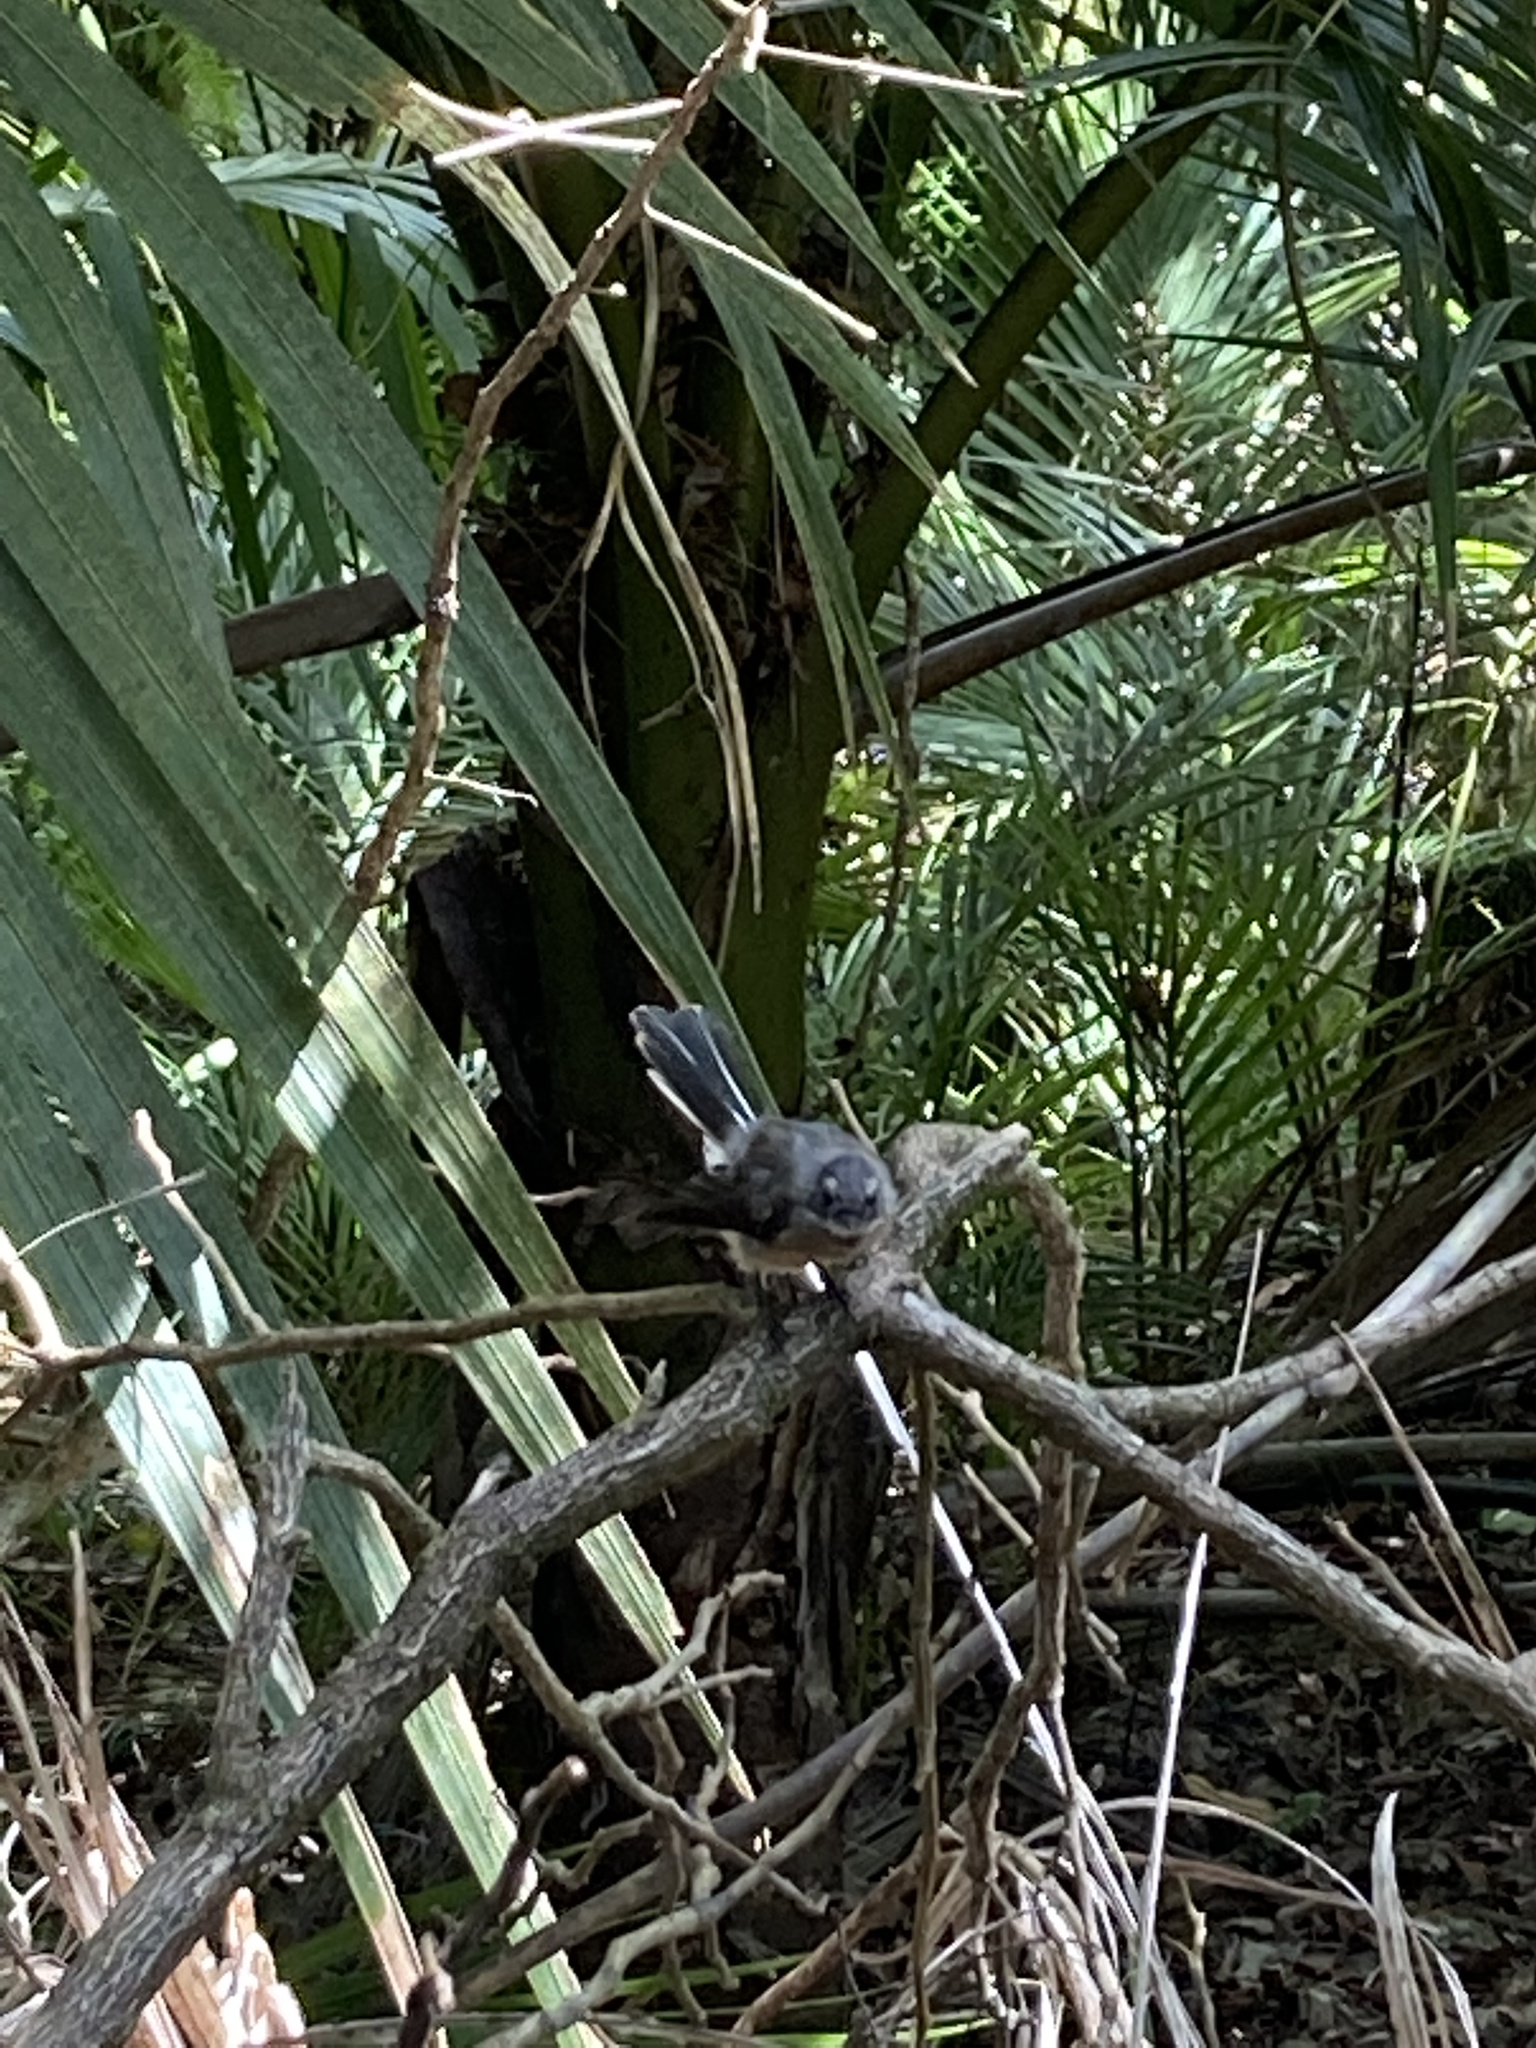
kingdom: Animalia
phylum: Chordata
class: Aves
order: Passeriformes
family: Rhipiduridae
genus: Rhipidura
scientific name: Rhipidura fuliginosa
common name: New zealand fantail
